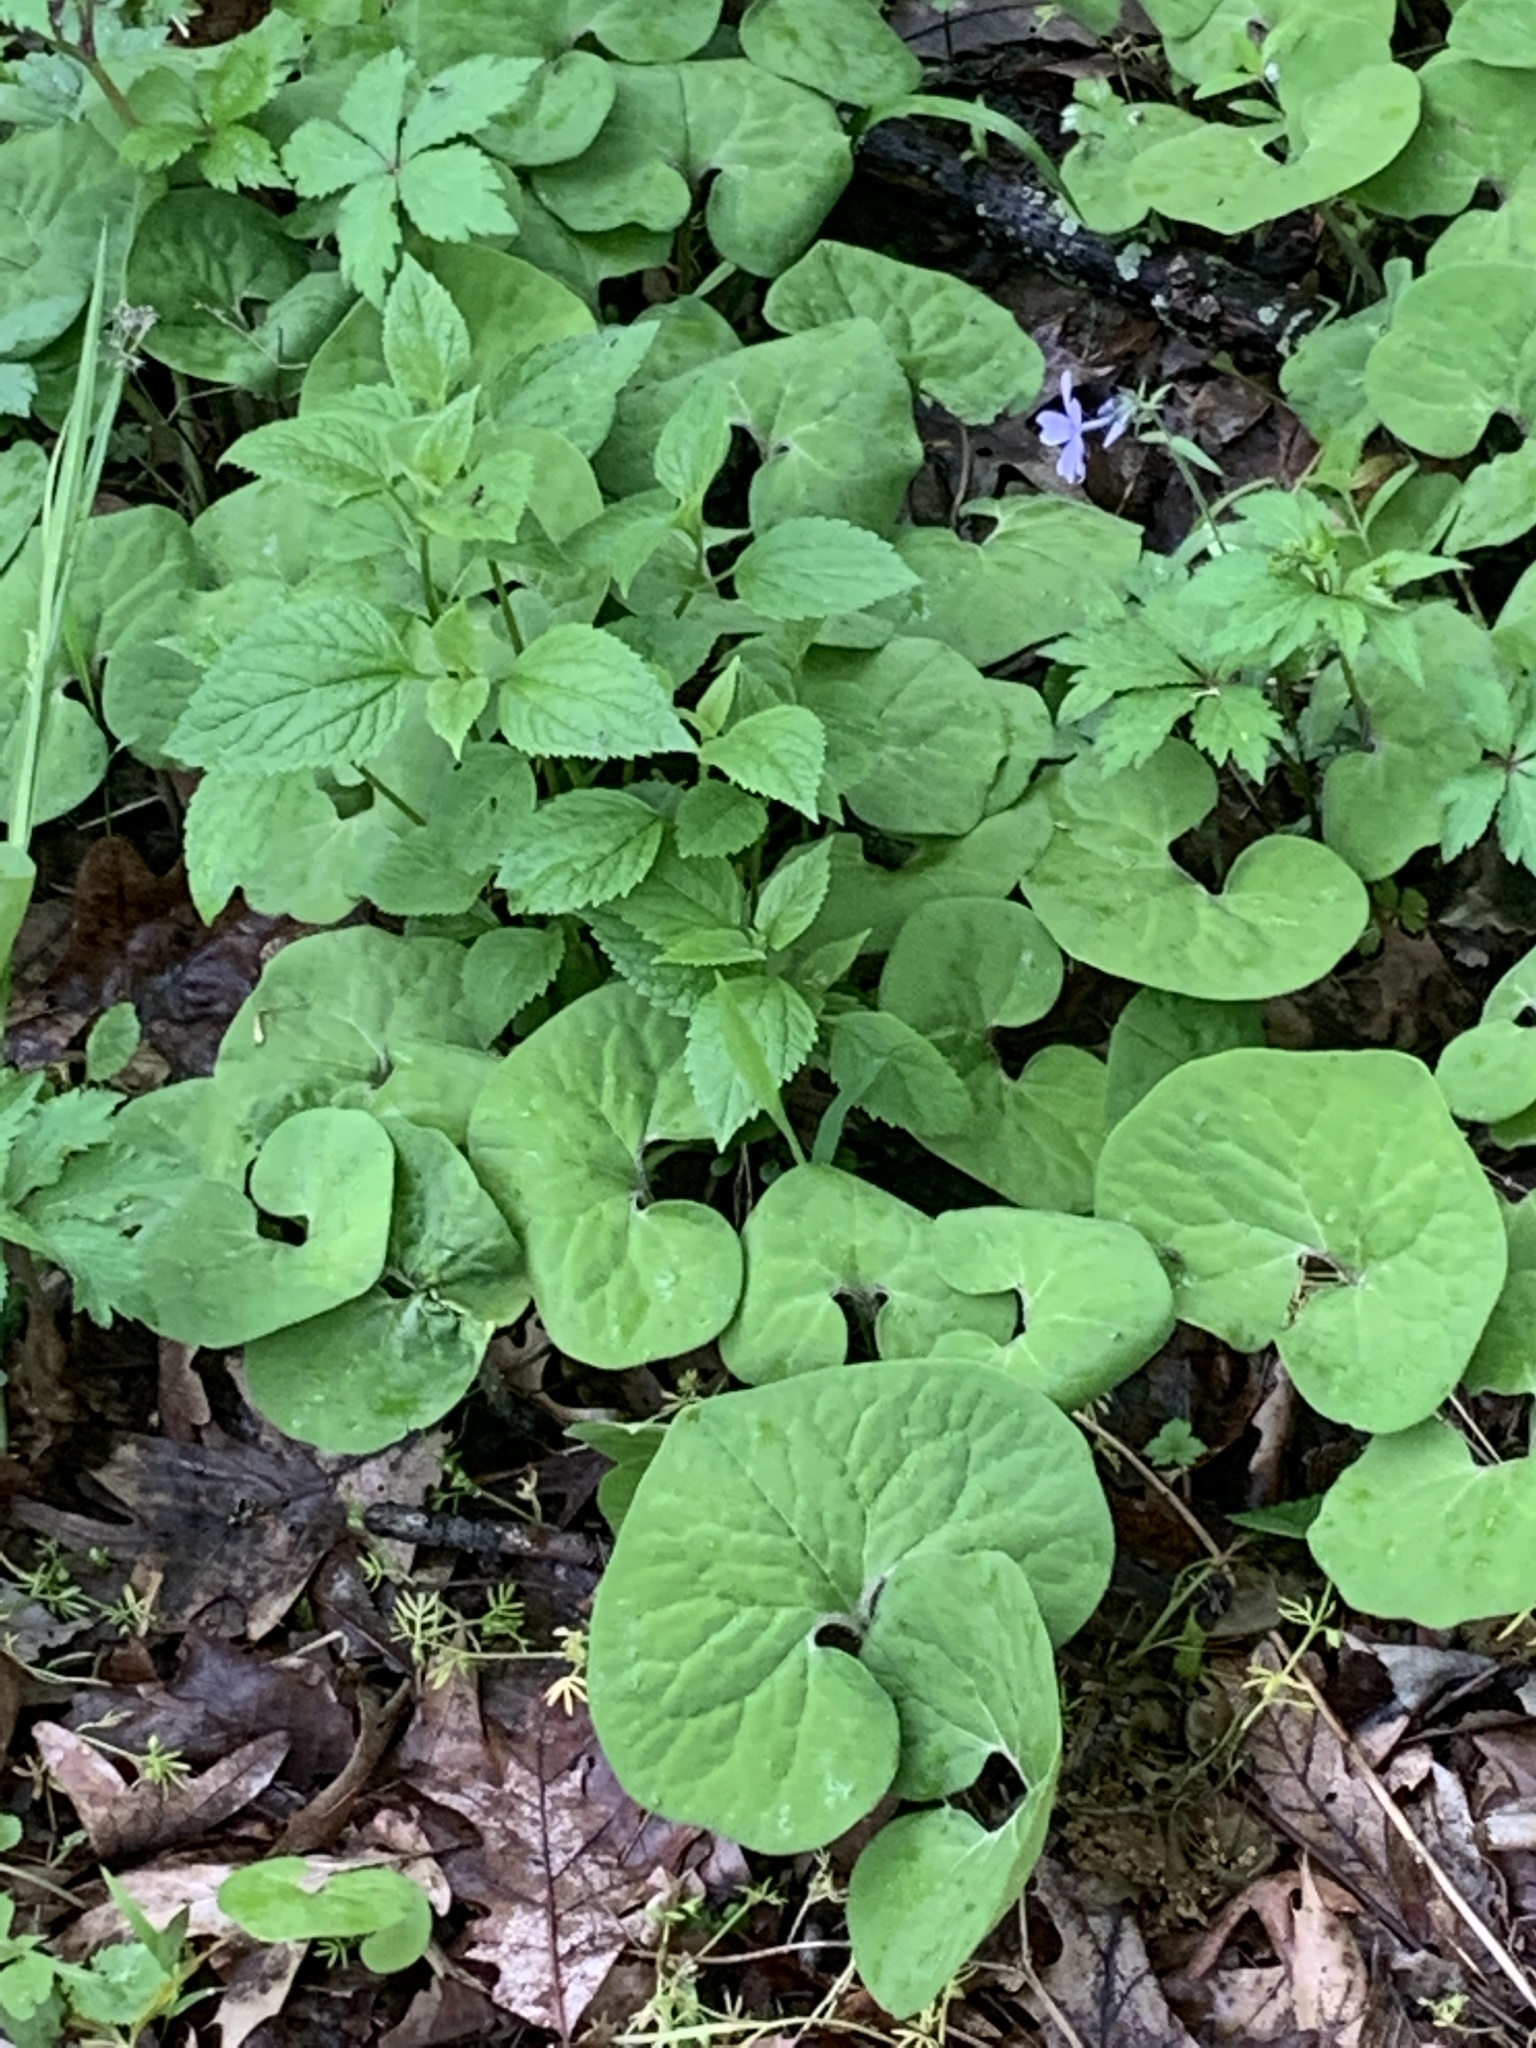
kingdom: Plantae
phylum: Tracheophyta
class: Magnoliopsida
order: Piperales
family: Aristolochiaceae
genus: Asarum
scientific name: Asarum canadense
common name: Wild ginger
